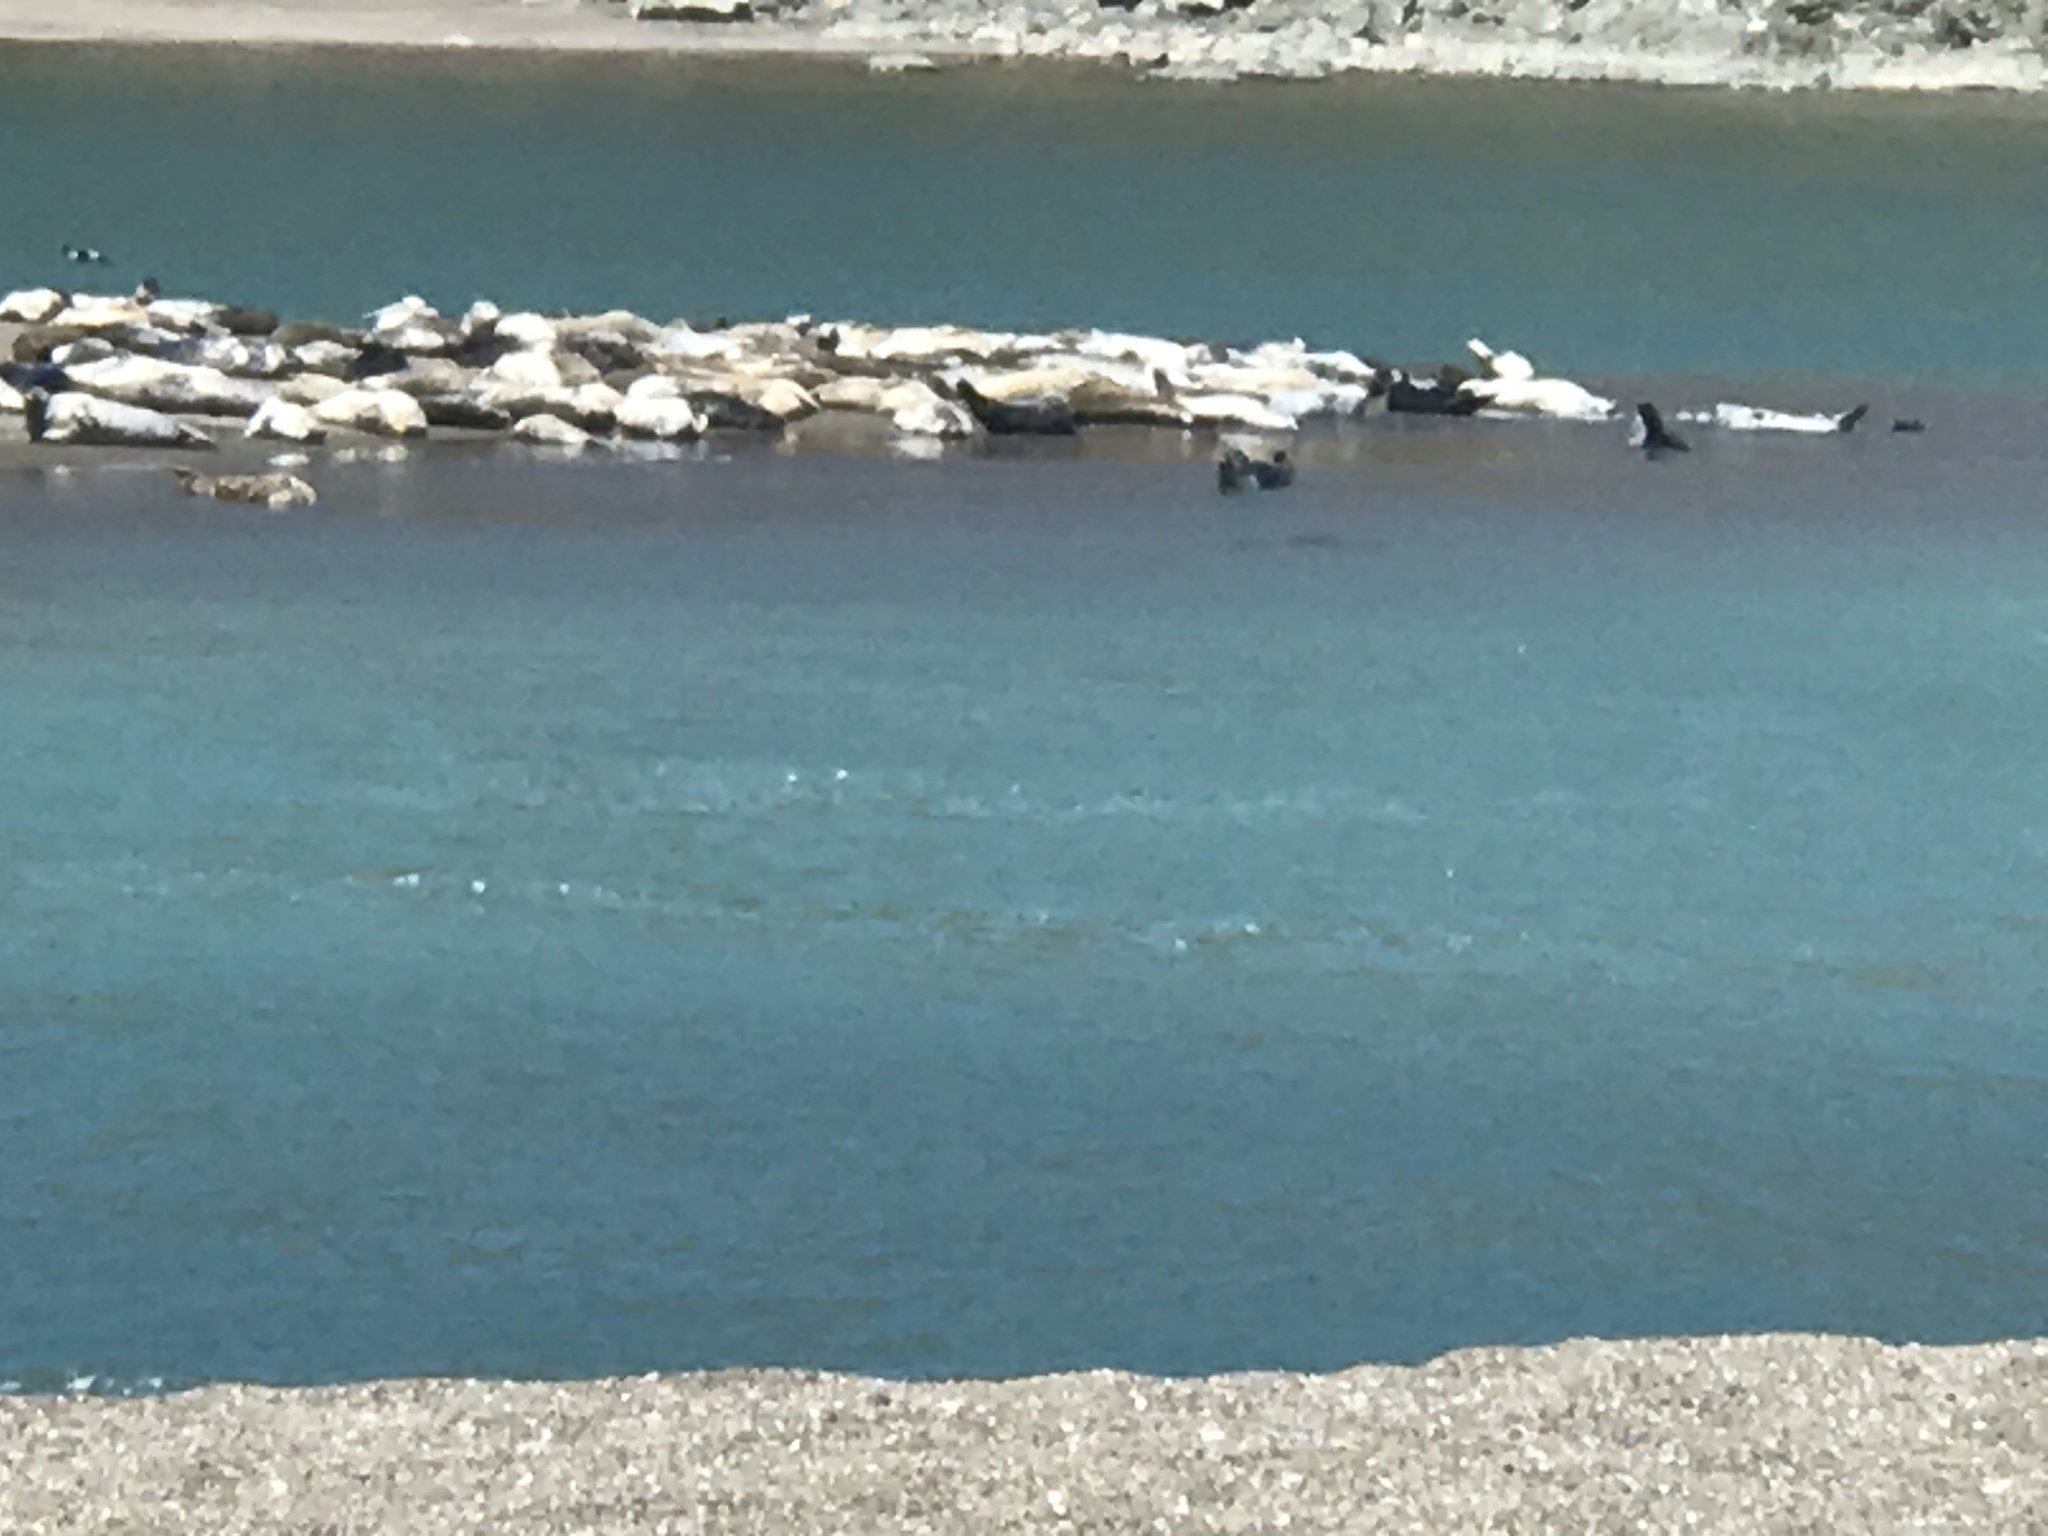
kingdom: Animalia
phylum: Chordata
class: Mammalia
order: Carnivora
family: Phocidae
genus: Phoca
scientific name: Phoca vitulina
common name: Harbor seal
